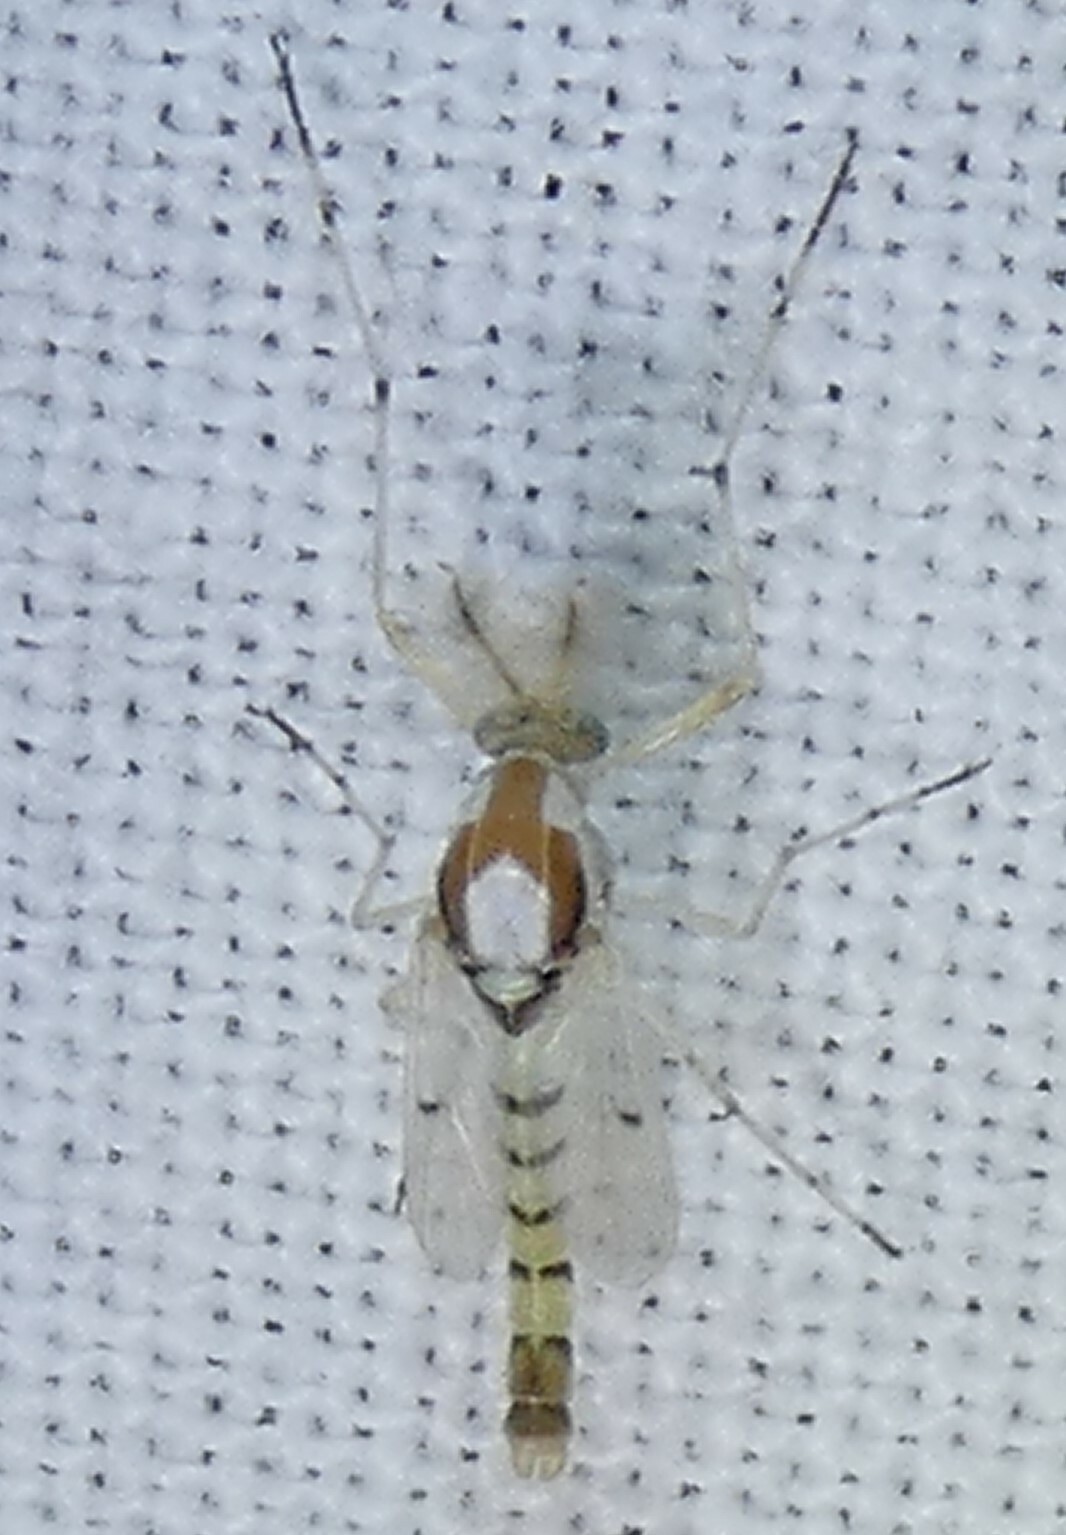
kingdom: Animalia
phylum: Arthropoda
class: Insecta
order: Diptera
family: Chironomidae
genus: Coelotanypus
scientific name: Coelotanypus concinnus
